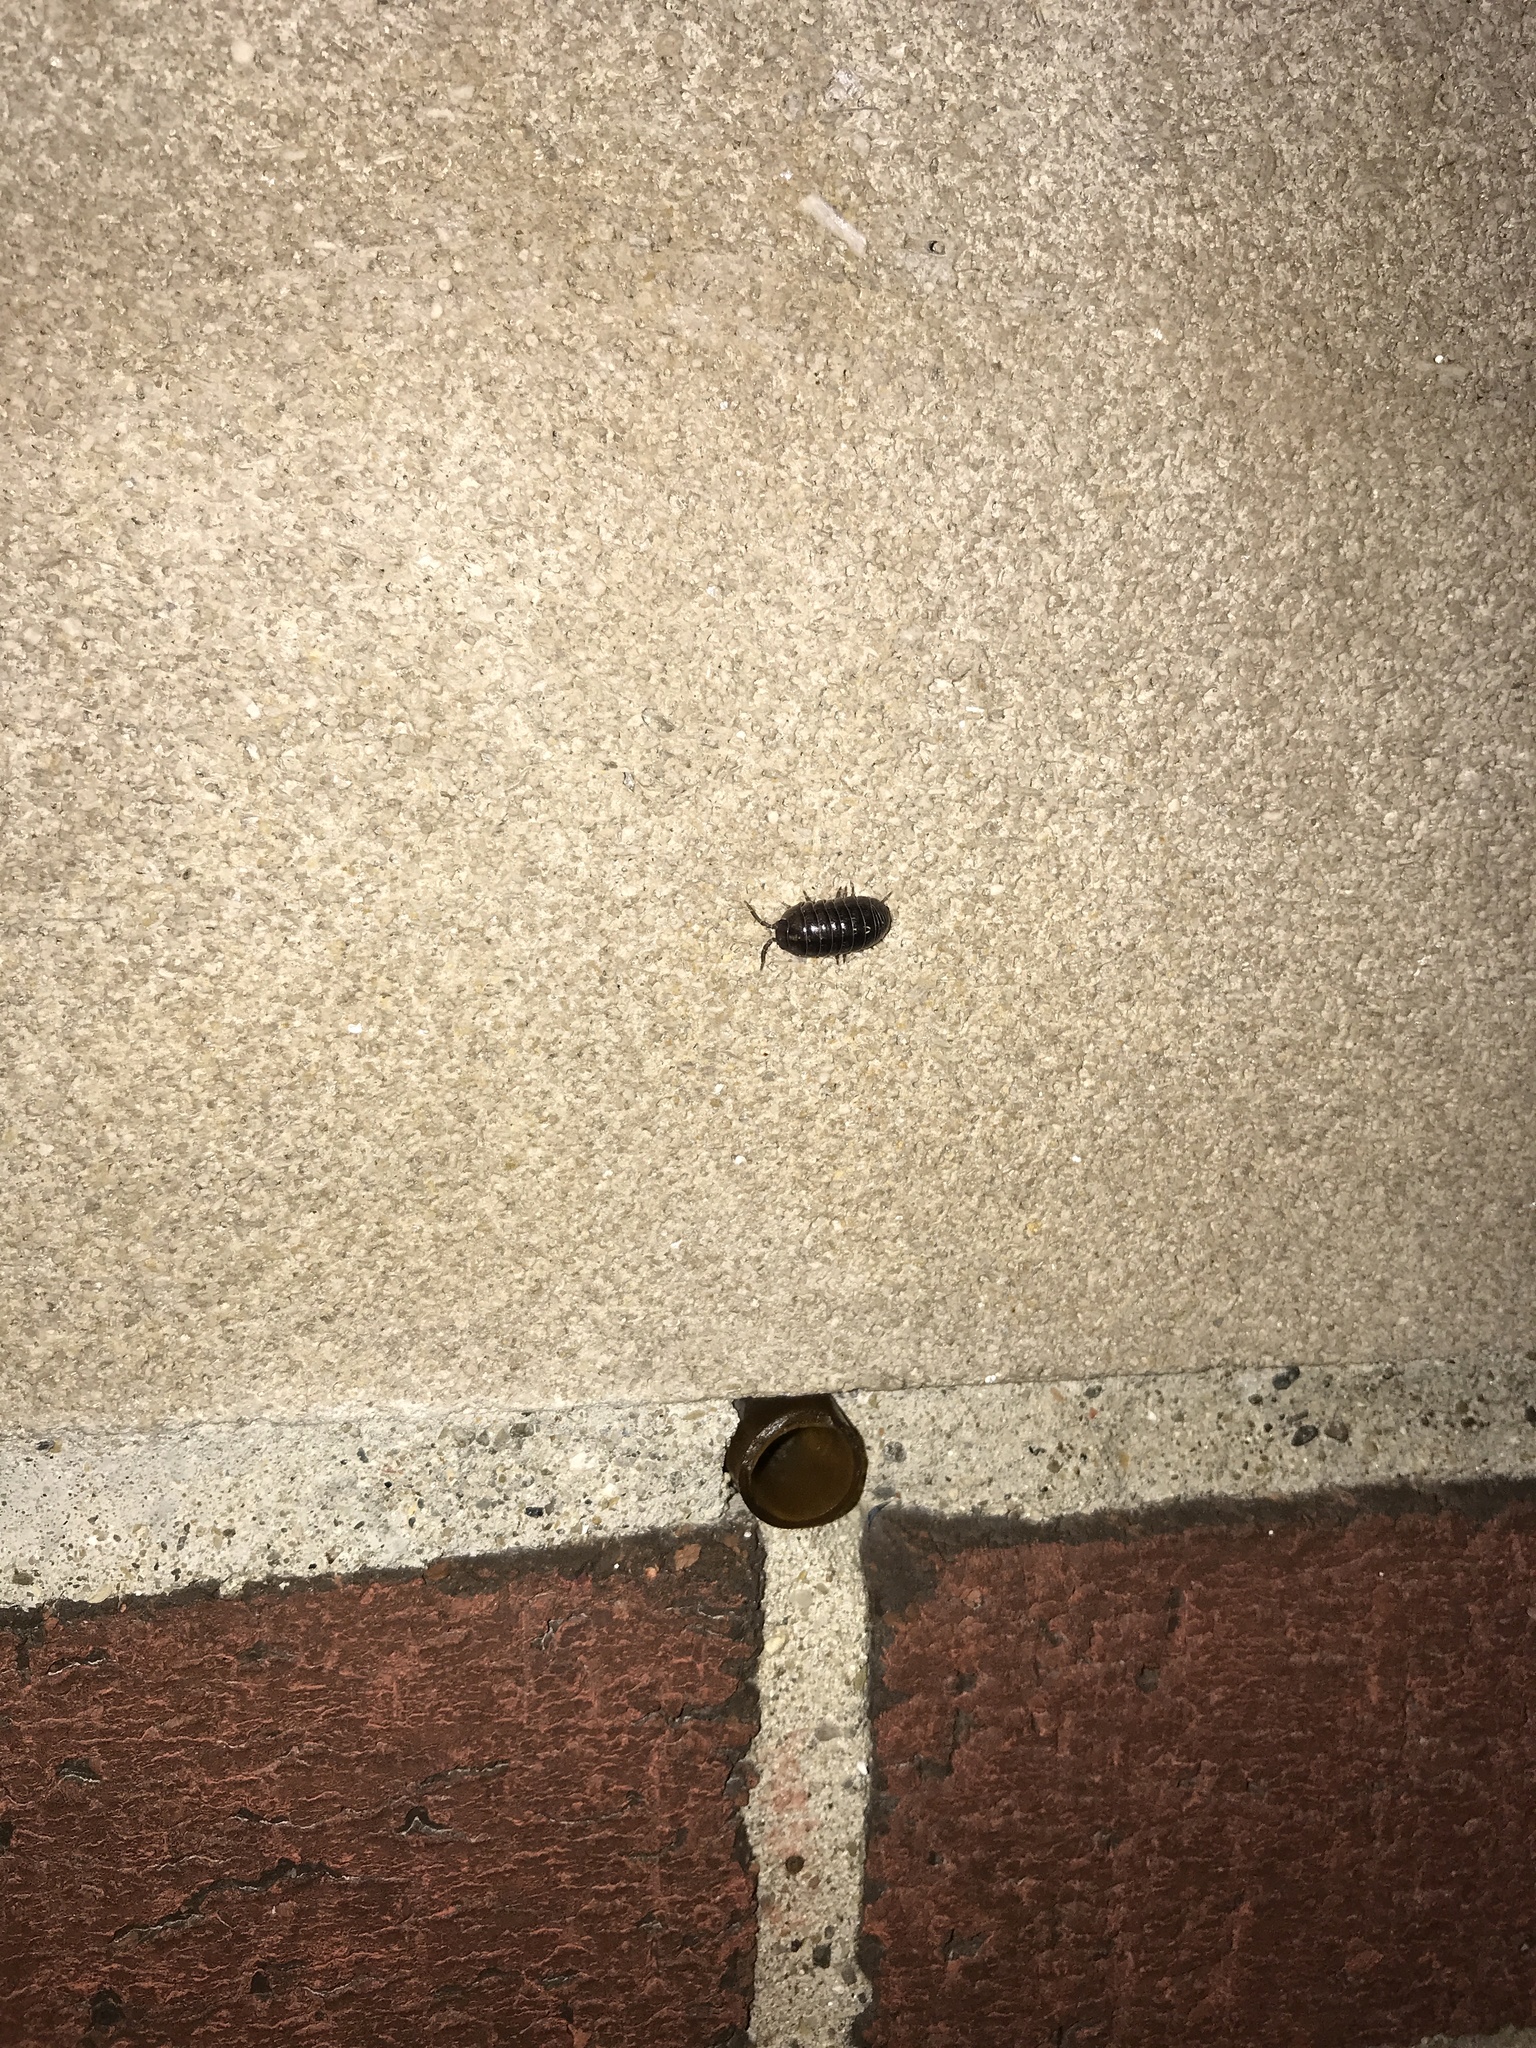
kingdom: Animalia
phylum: Arthropoda
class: Malacostraca
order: Isopoda
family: Armadillidiidae
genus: Armadillidium
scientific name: Armadillidium vulgare
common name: Common pill woodlouse
